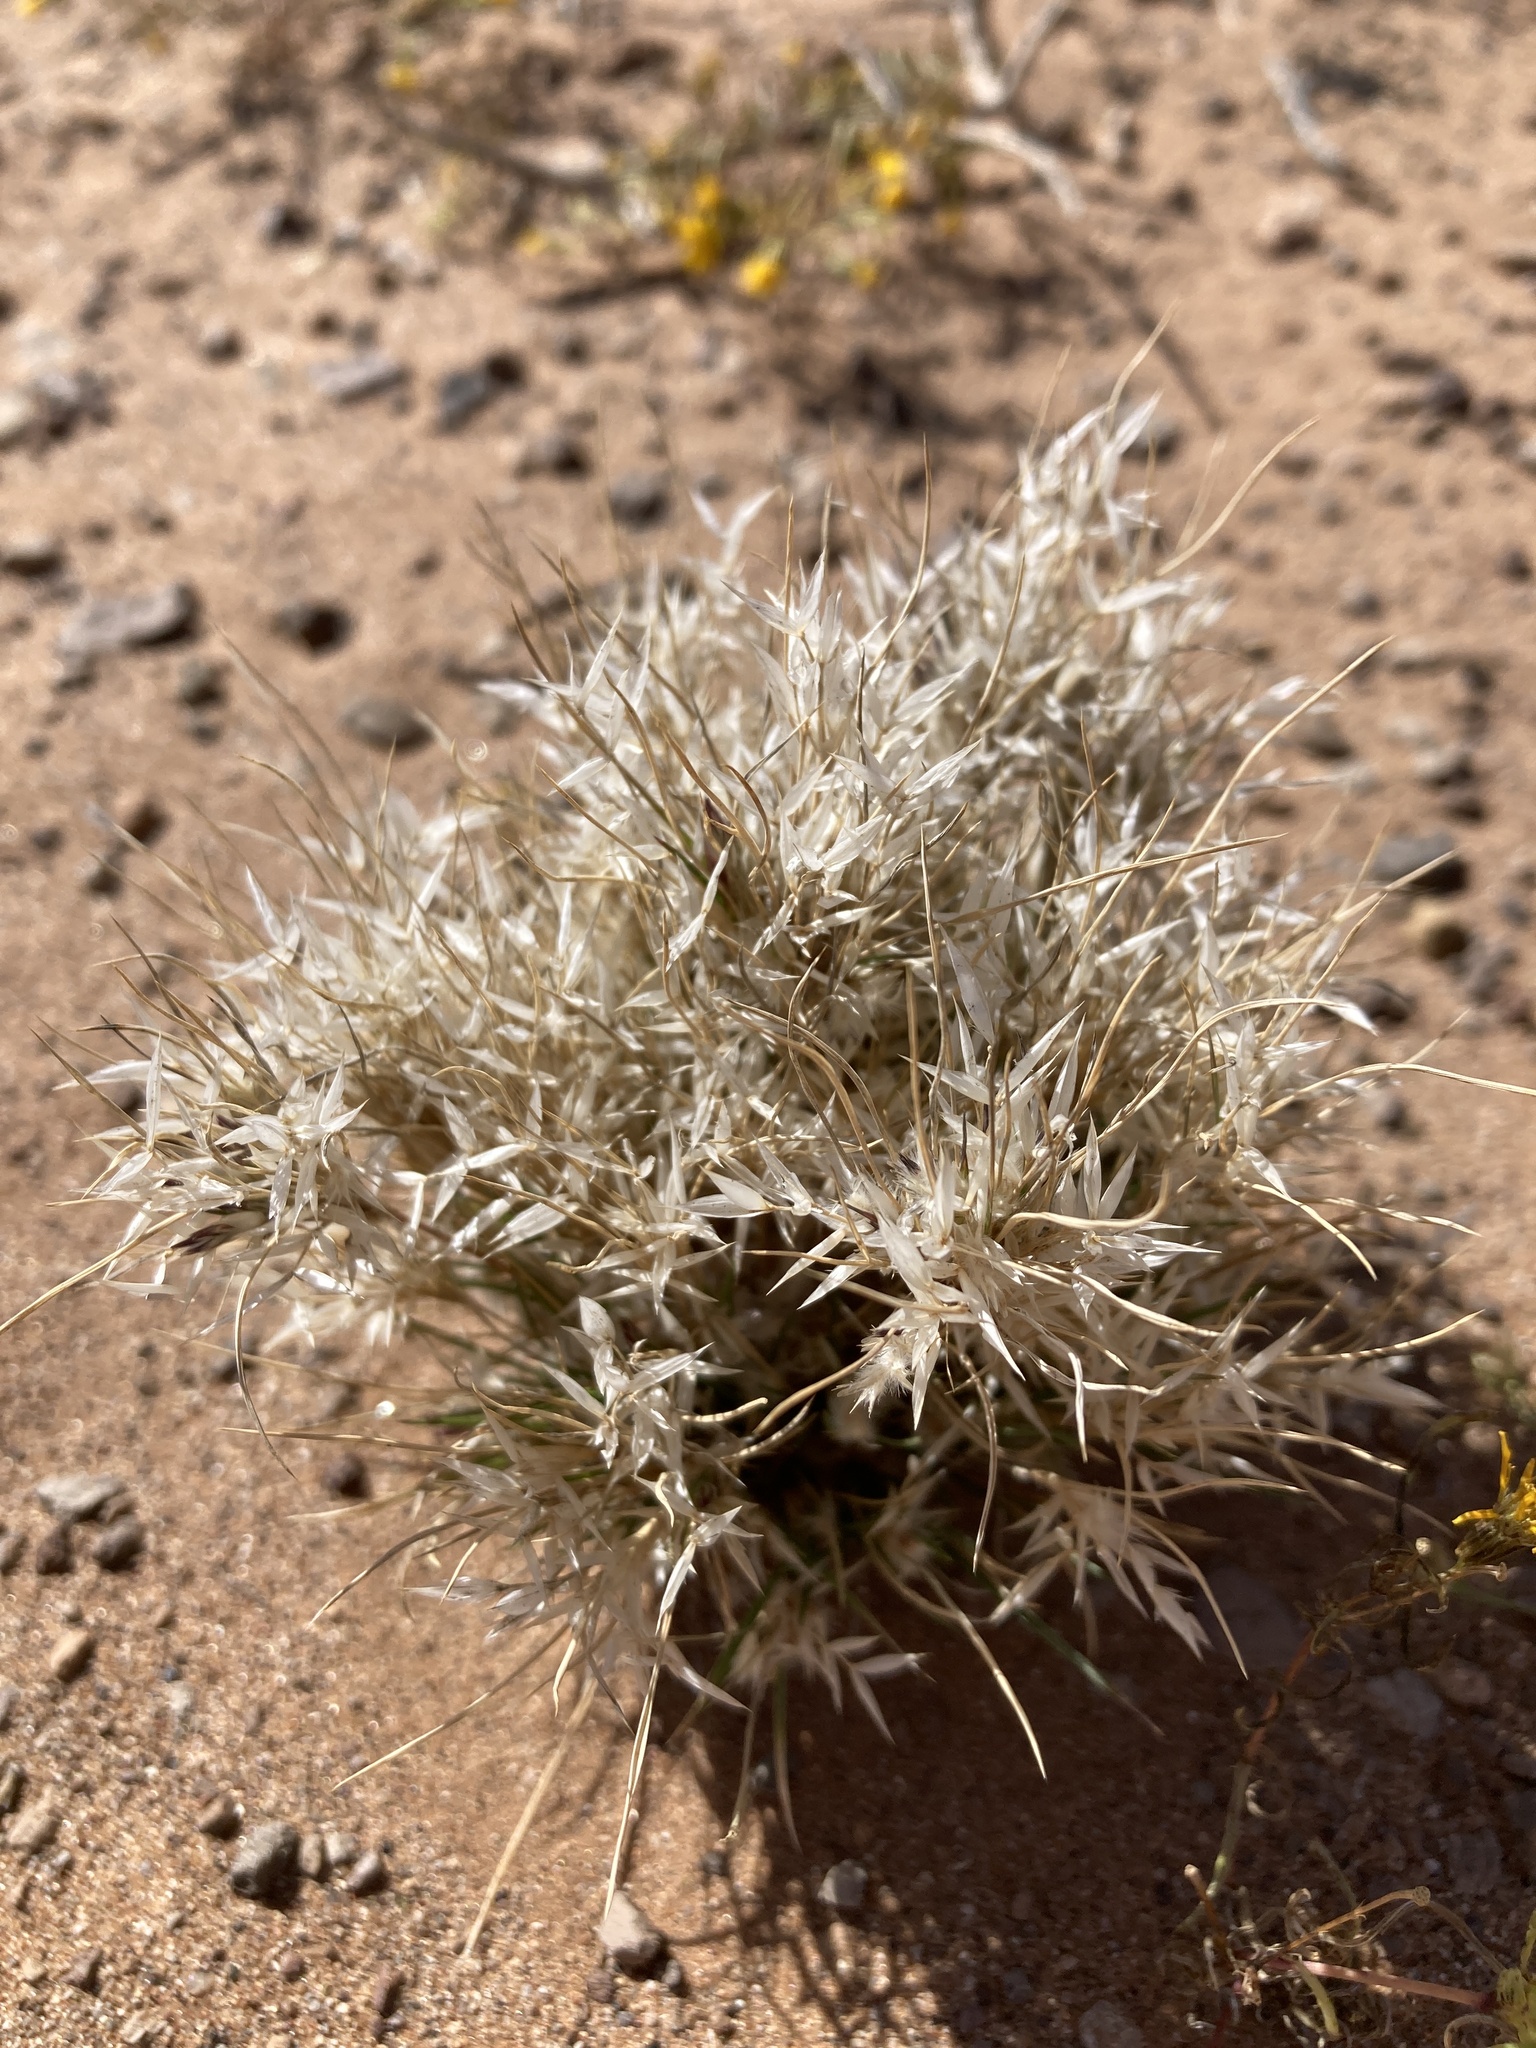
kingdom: Plantae
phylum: Tracheophyta
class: Liliopsida
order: Poales
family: Poaceae
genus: Dasyochloa
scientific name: Dasyochloa pulchella
